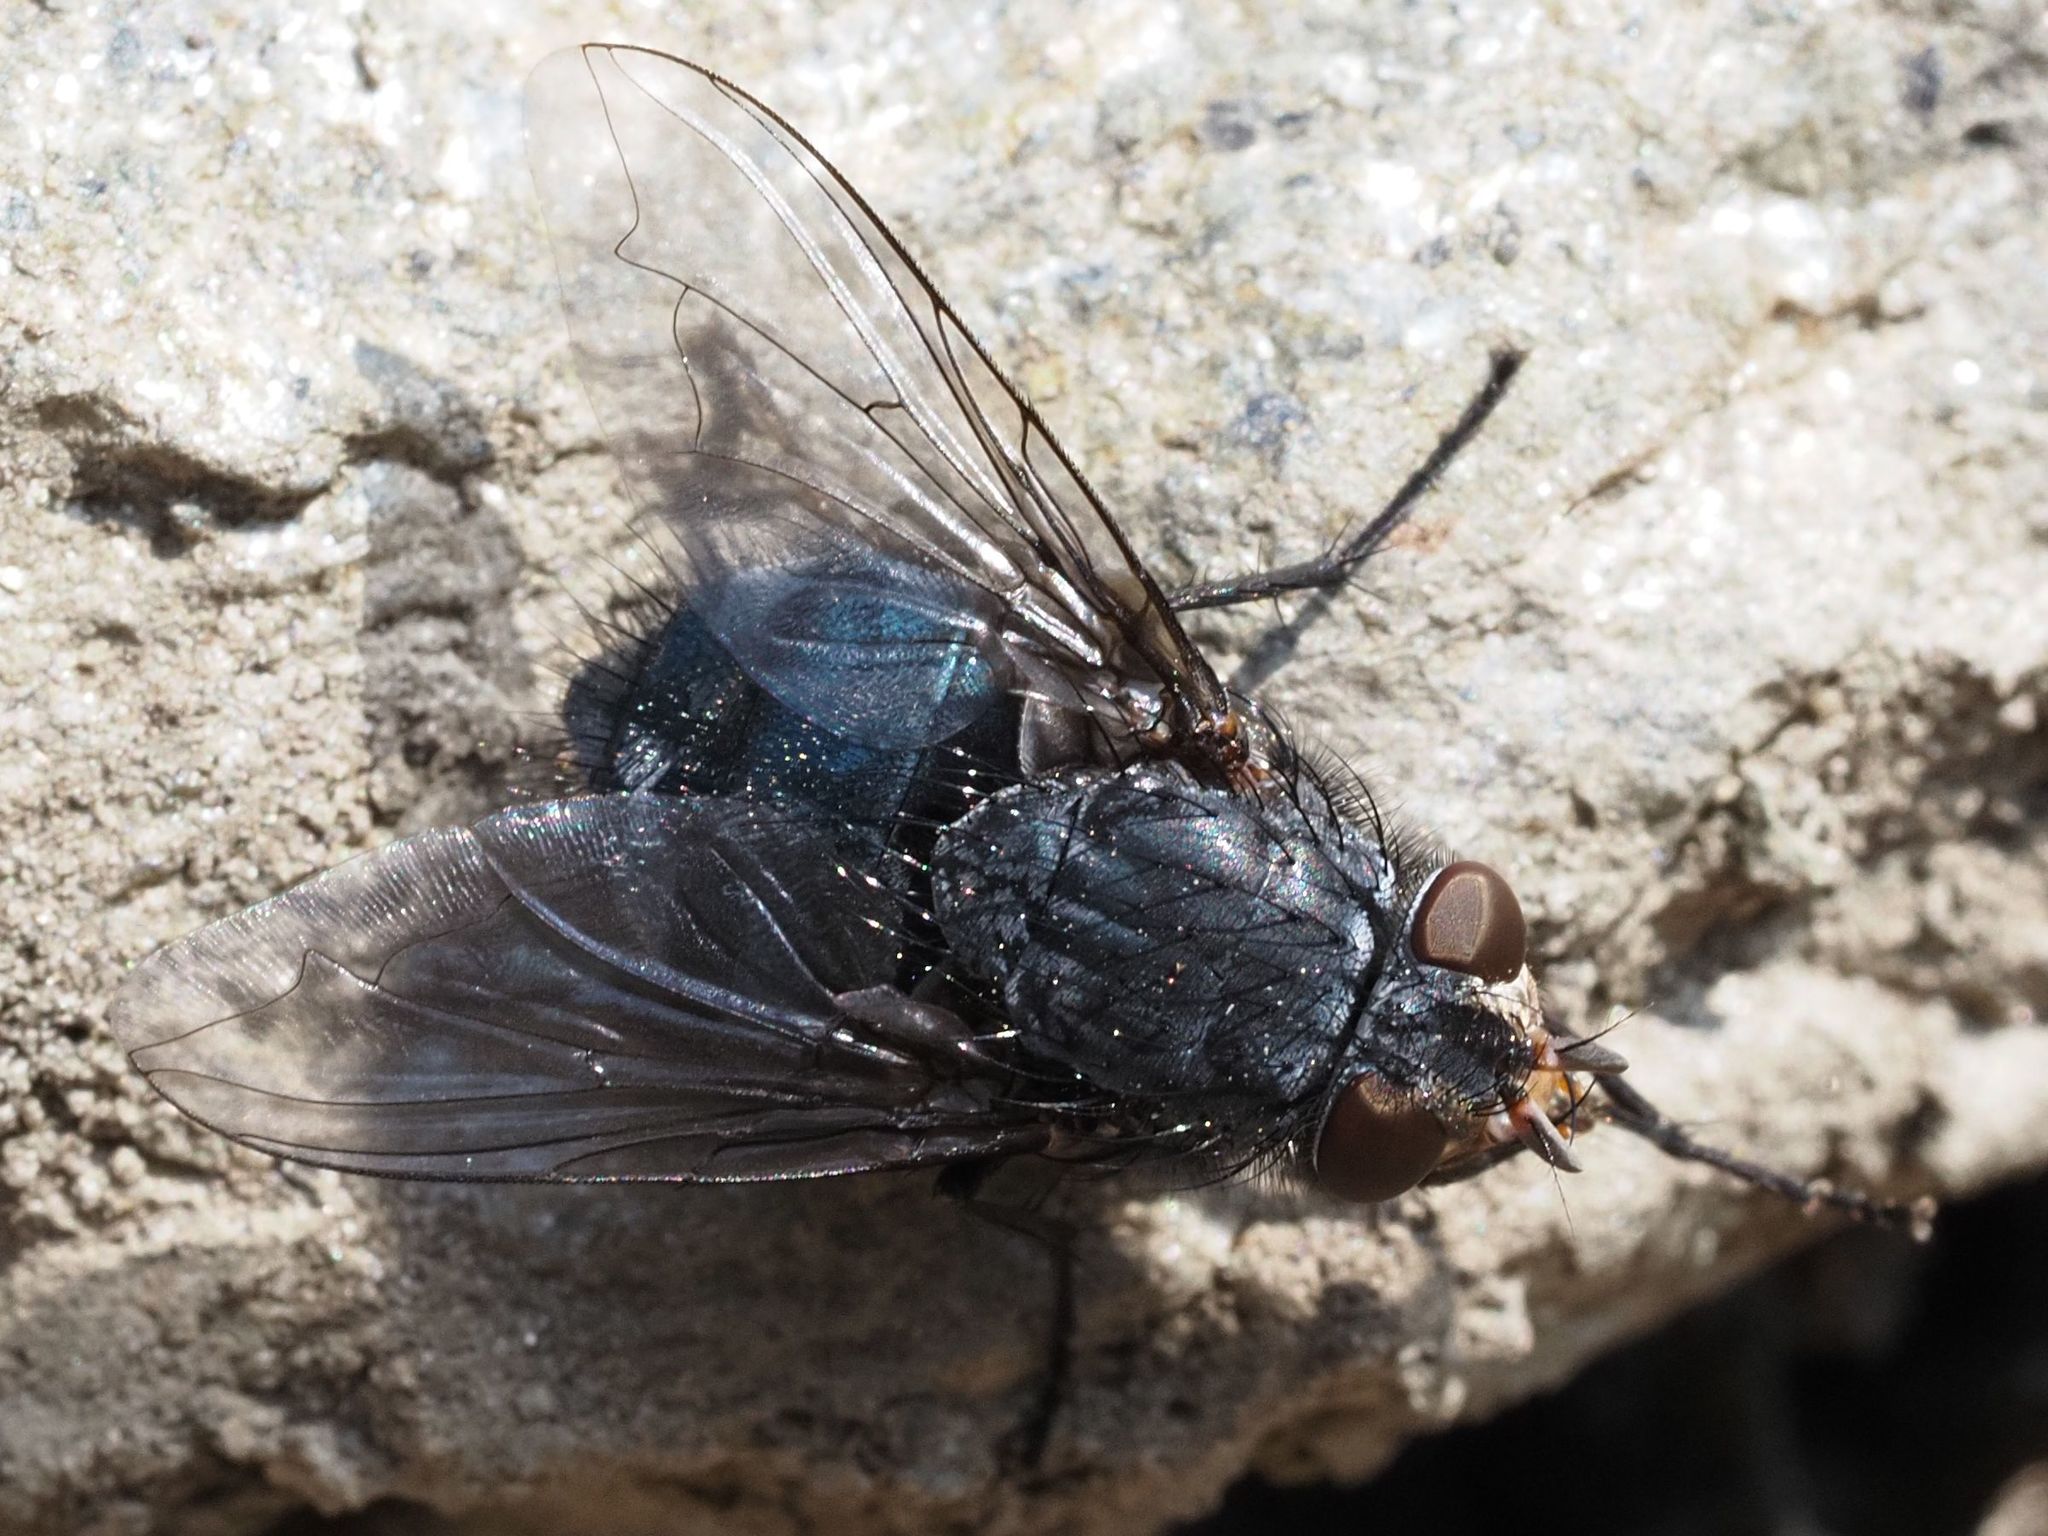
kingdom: Animalia
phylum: Arthropoda
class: Insecta
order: Diptera
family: Calliphoridae
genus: Calliphora
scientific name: Calliphora vicina
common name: Common blow flie
